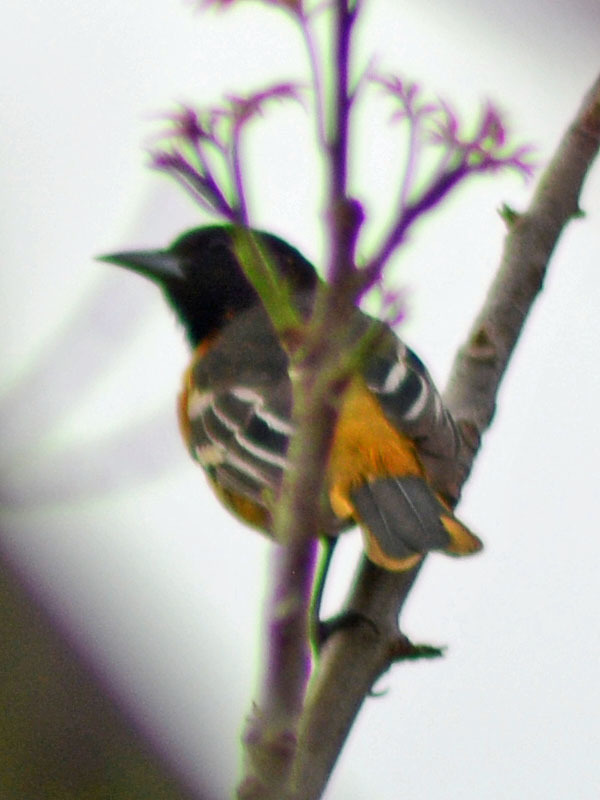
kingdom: Animalia
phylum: Chordata
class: Aves
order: Passeriformes
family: Icteridae
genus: Icterus
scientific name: Icterus galbula
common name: Baltimore oriole
